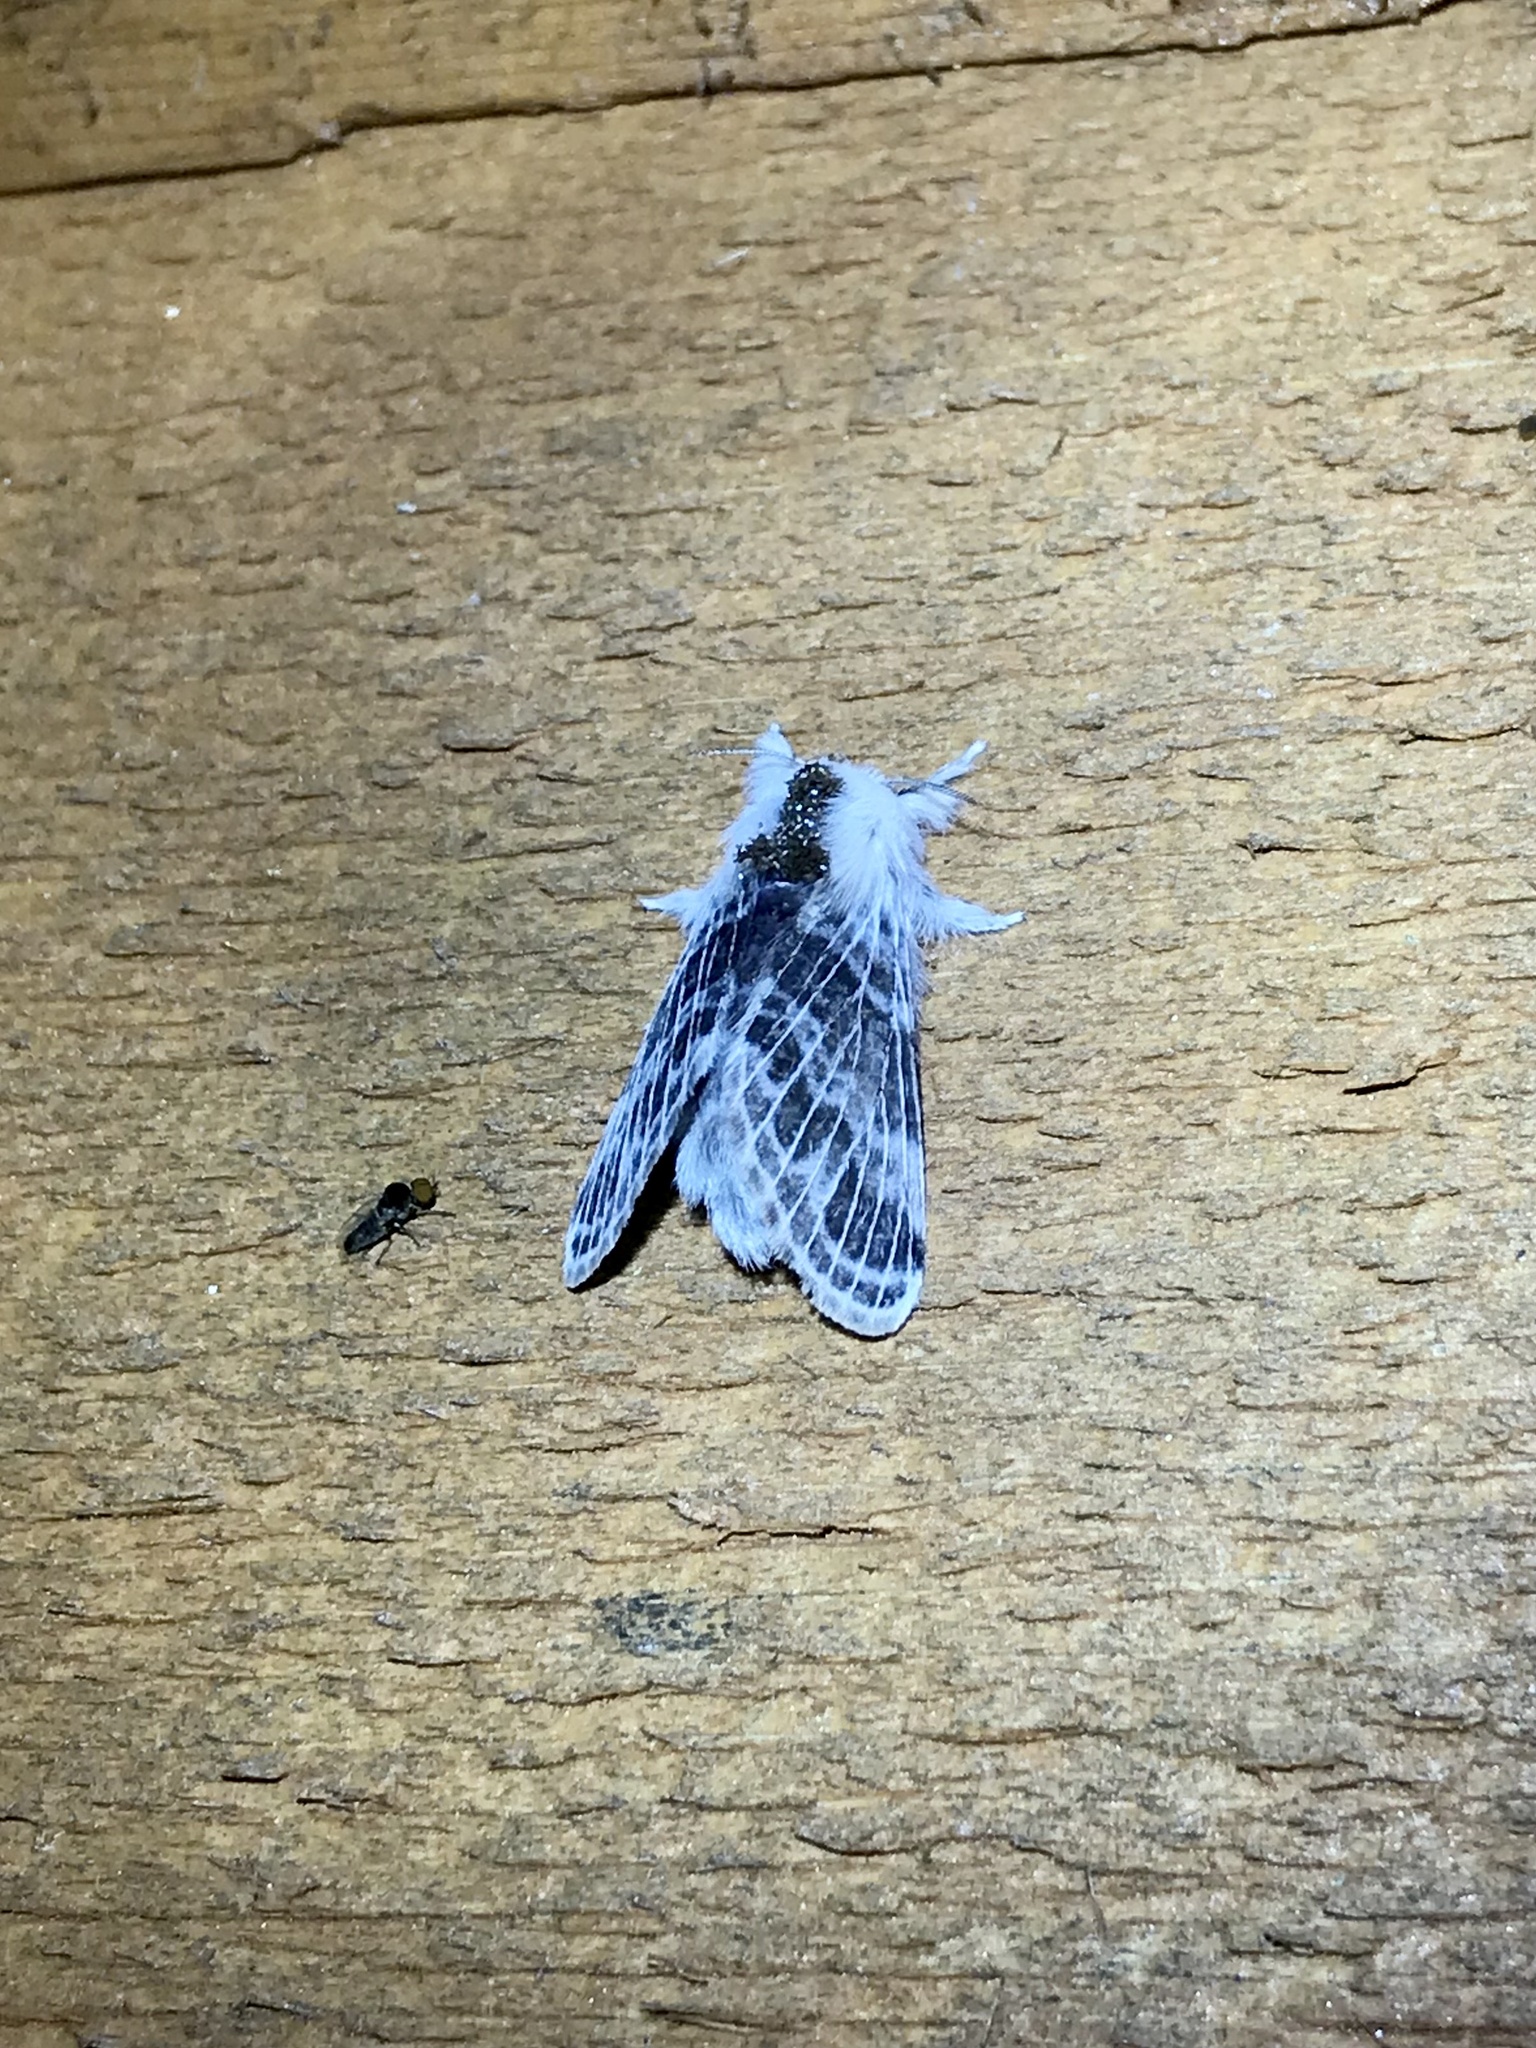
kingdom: Animalia
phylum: Arthropoda
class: Insecta
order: Lepidoptera
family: Lasiocampidae
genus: Tolype
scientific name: Tolype velleda
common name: Large tolype moth
